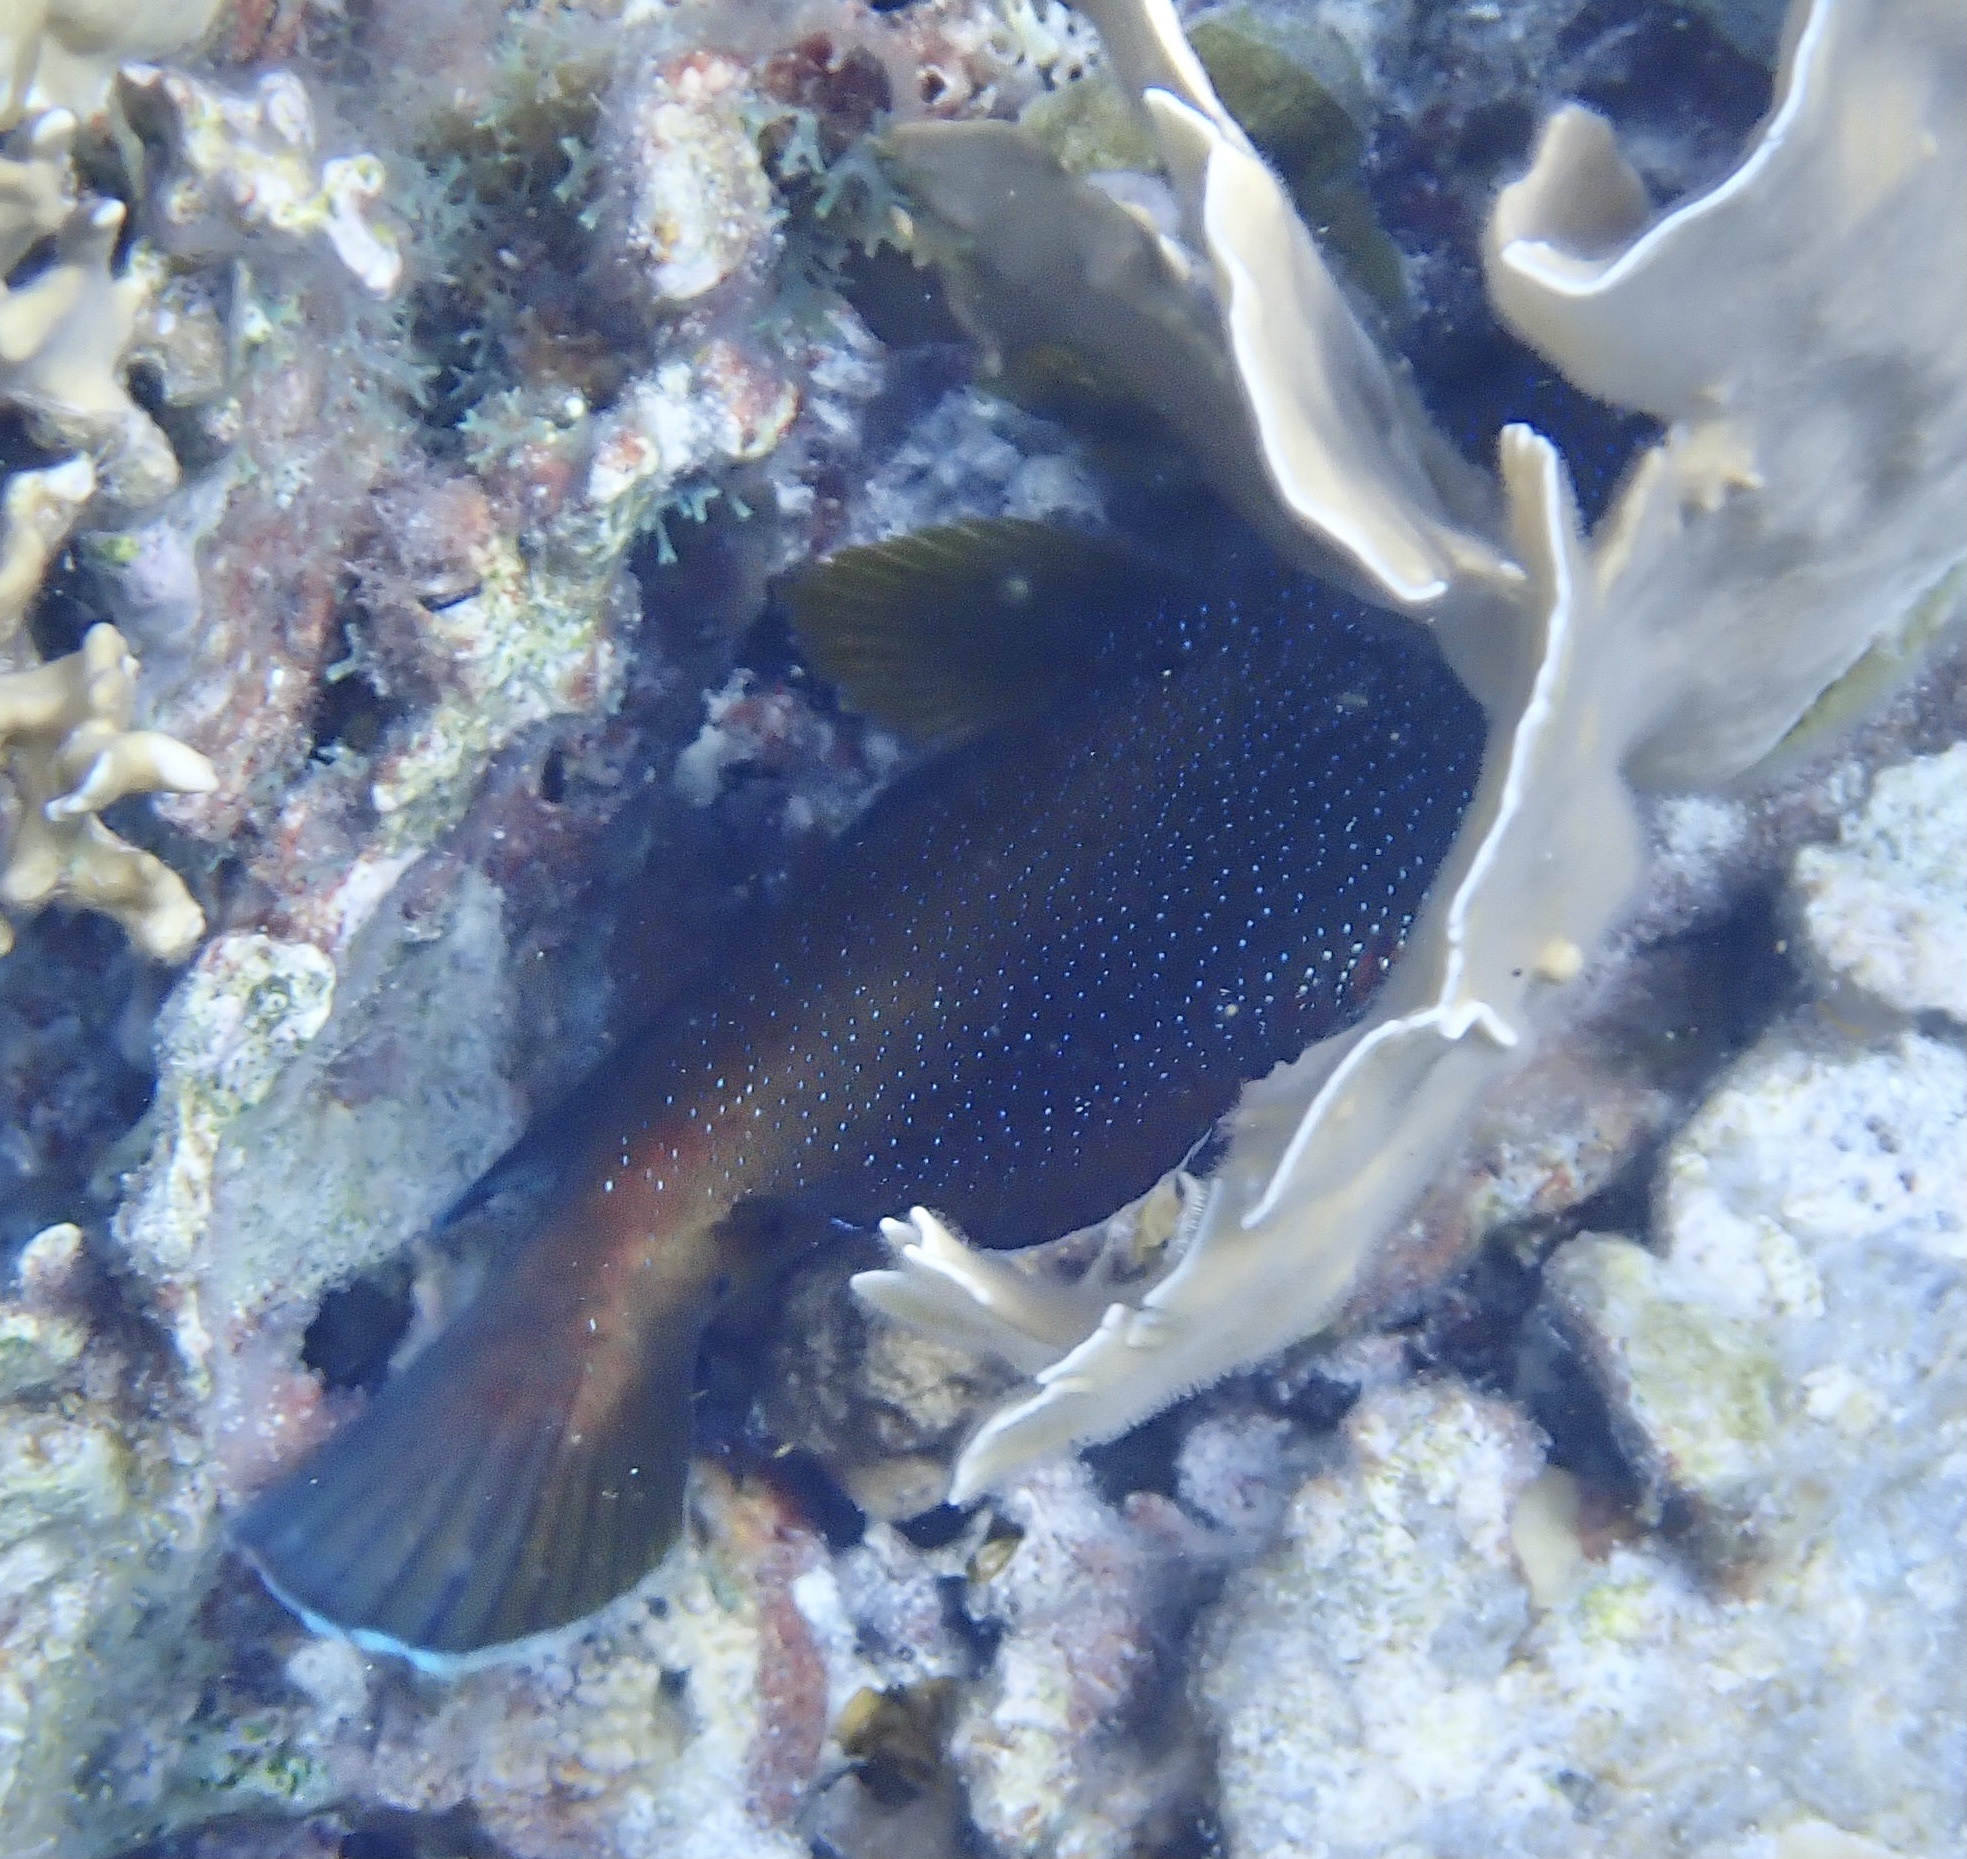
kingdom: Animalia
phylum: Chordata
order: Perciformes
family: Serranidae
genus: Cephalopholis
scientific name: Cephalopholis fulva
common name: Butterfish
